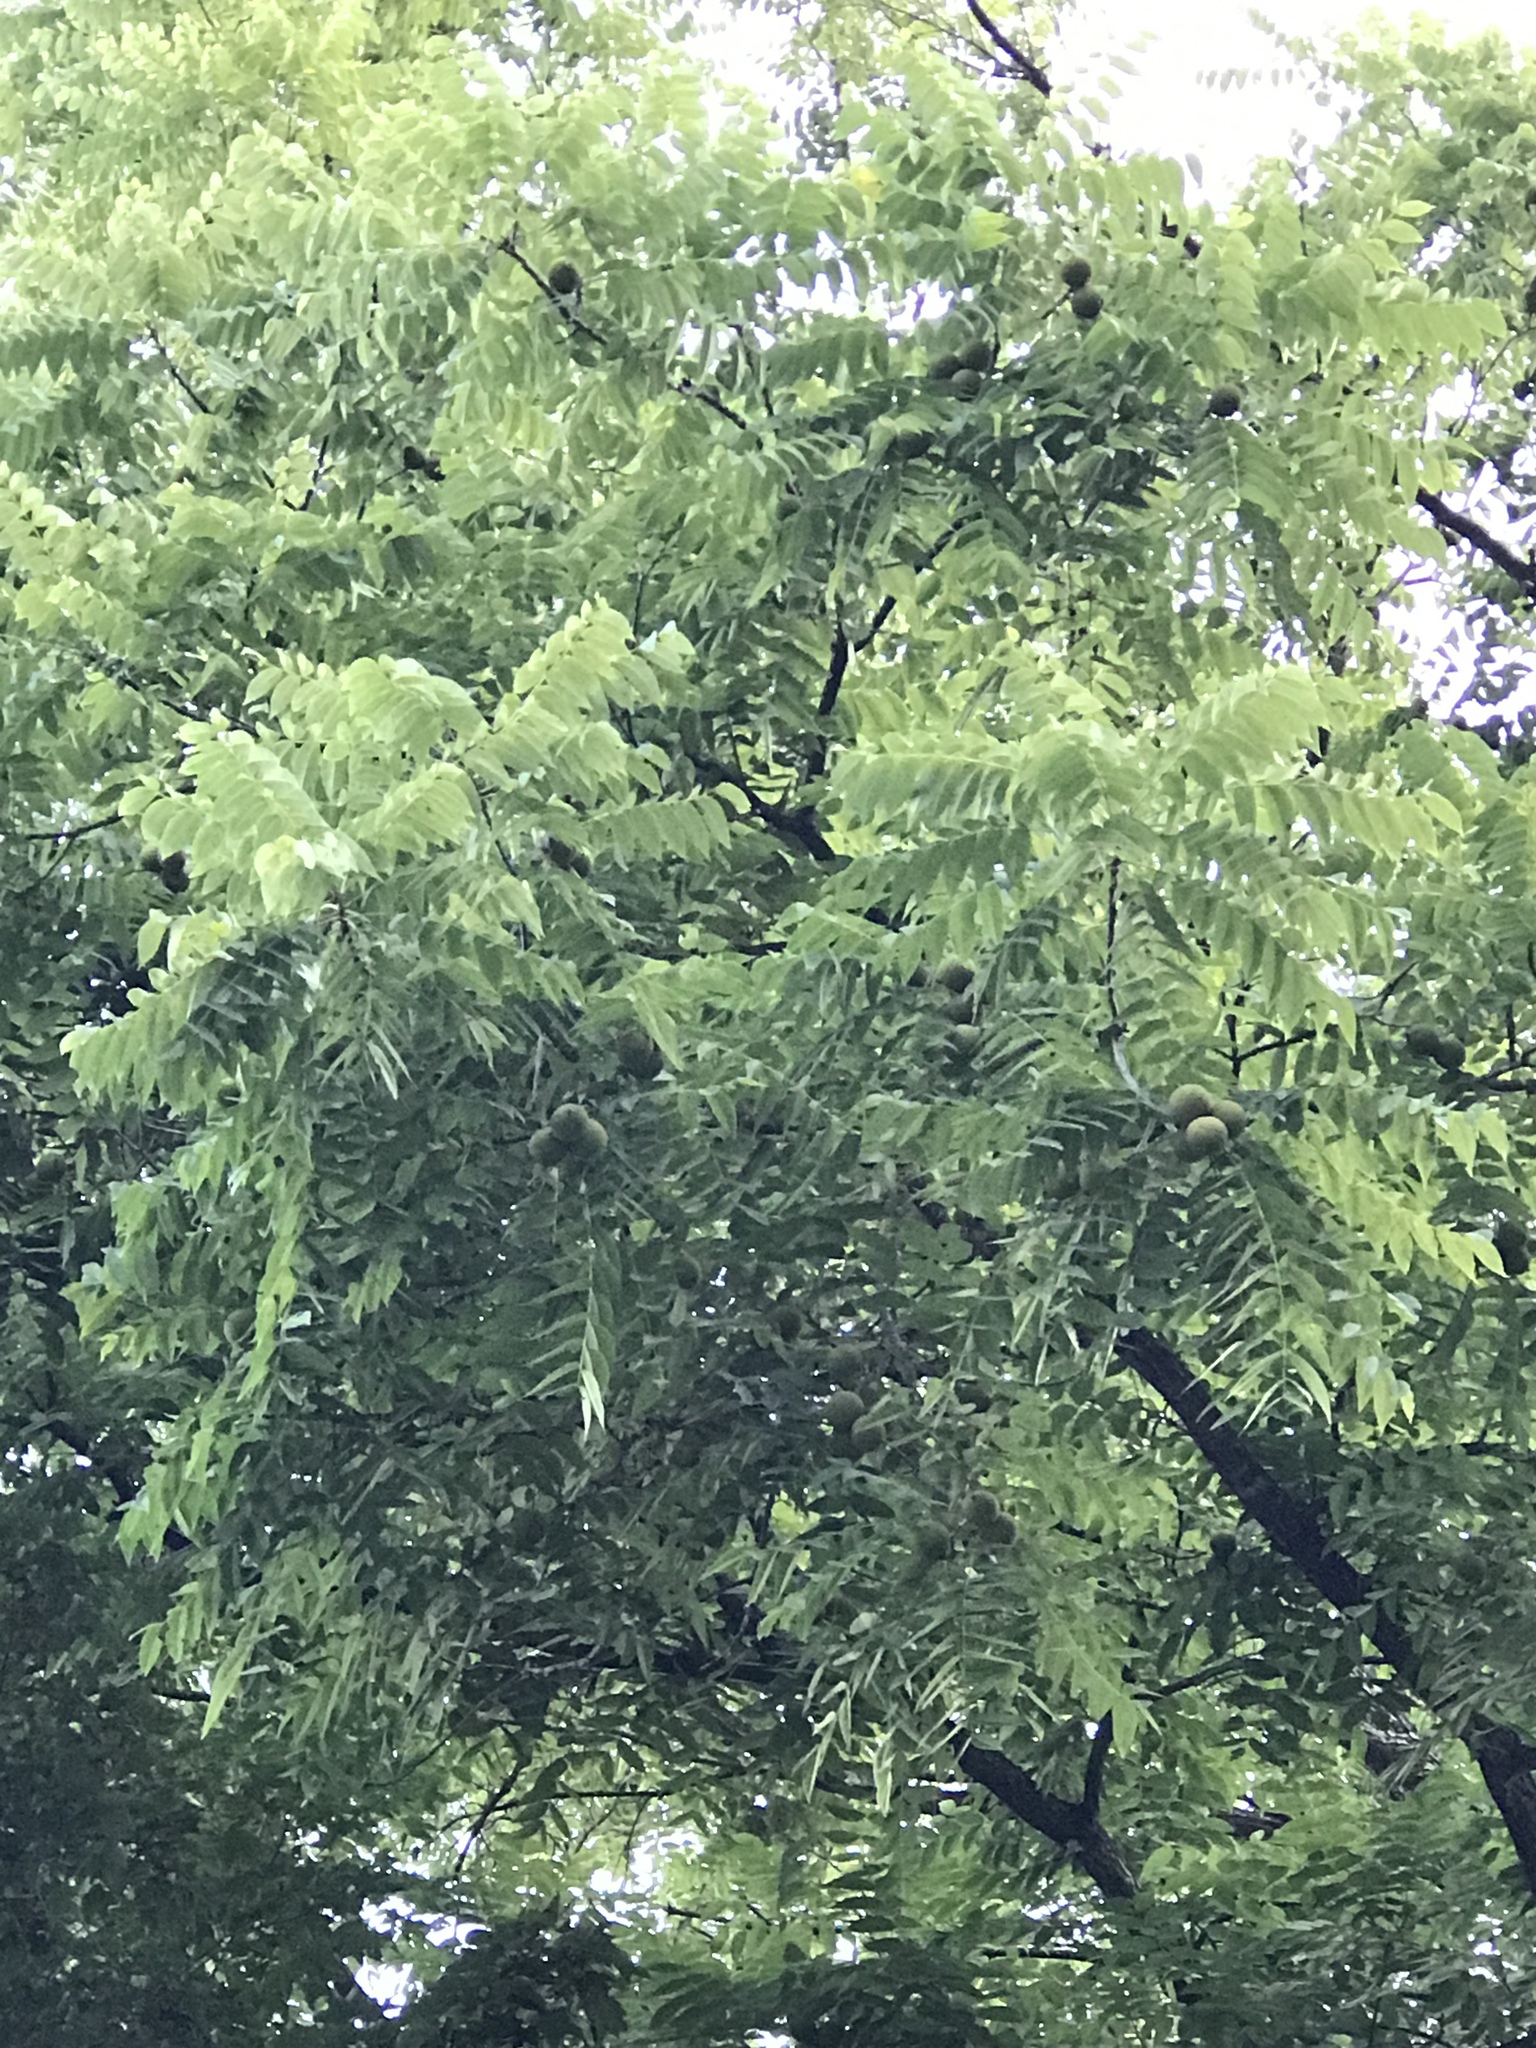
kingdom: Plantae
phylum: Tracheophyta
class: Magnoliopsida
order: Fagales
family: Juglandaceae
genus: Juglans
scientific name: Juglans nigra
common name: Black walnut
